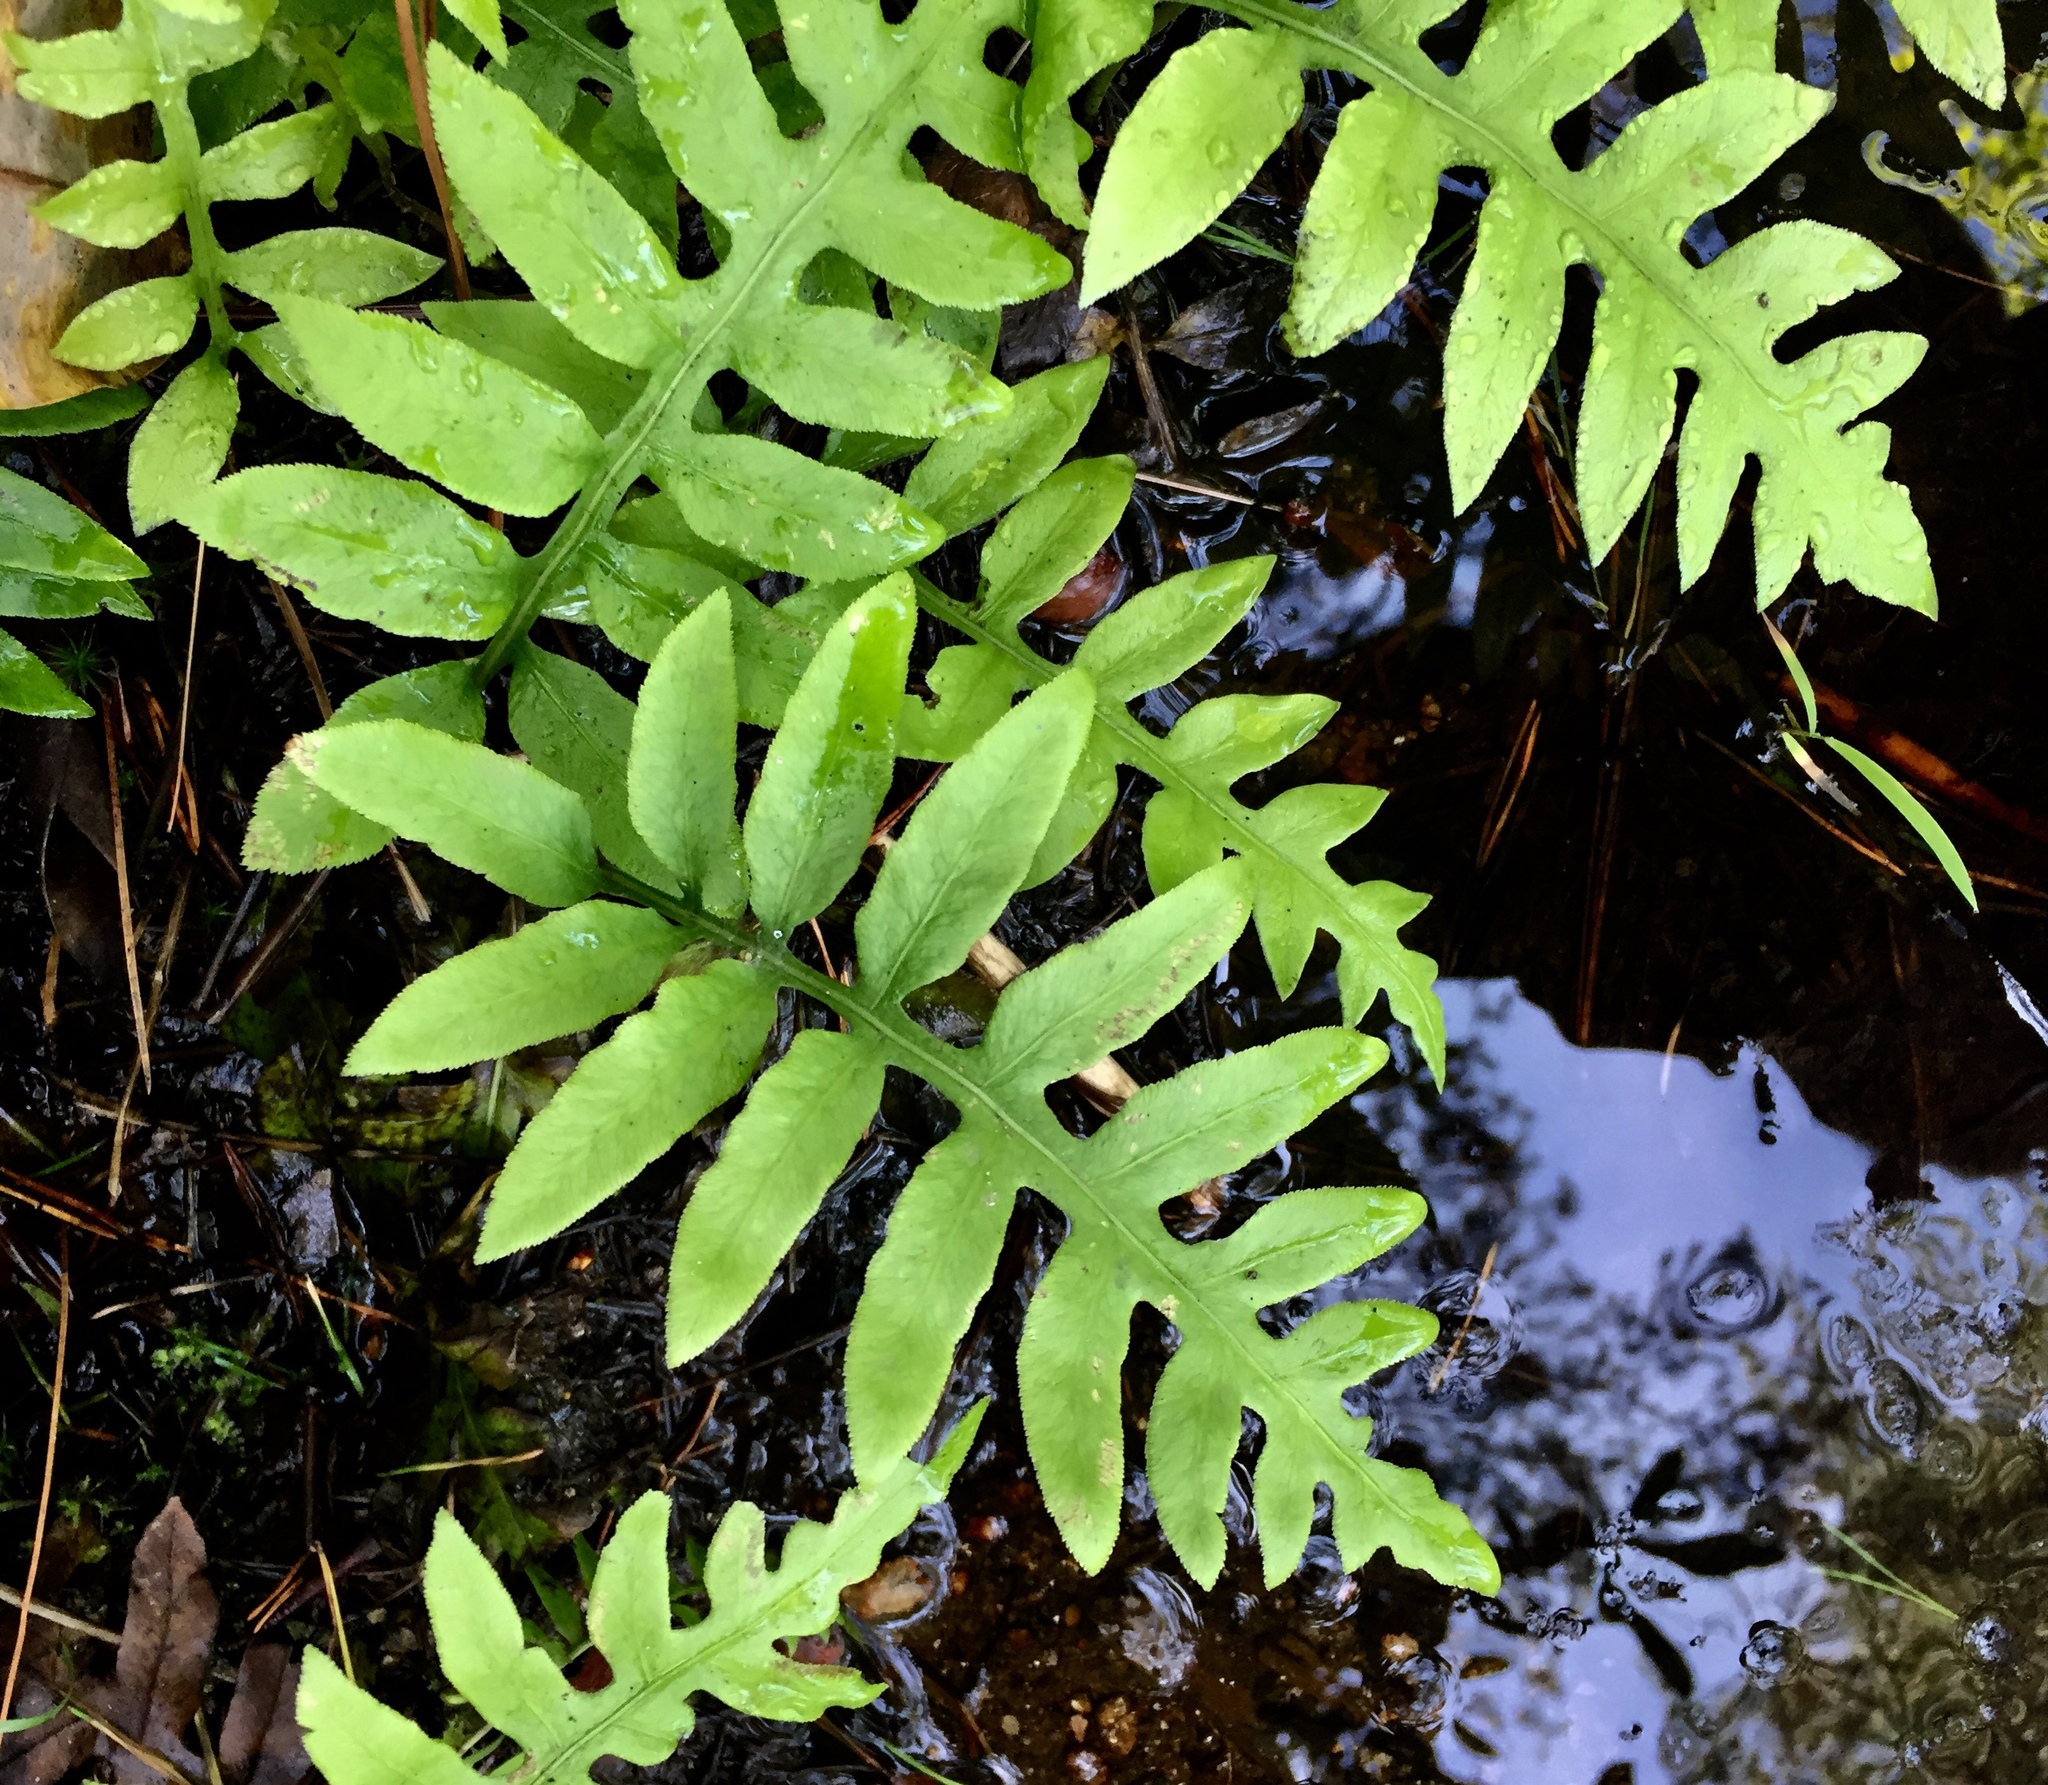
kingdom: Plantae
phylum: Tracheophyta
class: Polypodiopsida
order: Polypodiales
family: Blechnaceae
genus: Lorinseria
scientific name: Lorinseria areolata
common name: Dwarf chain fern
